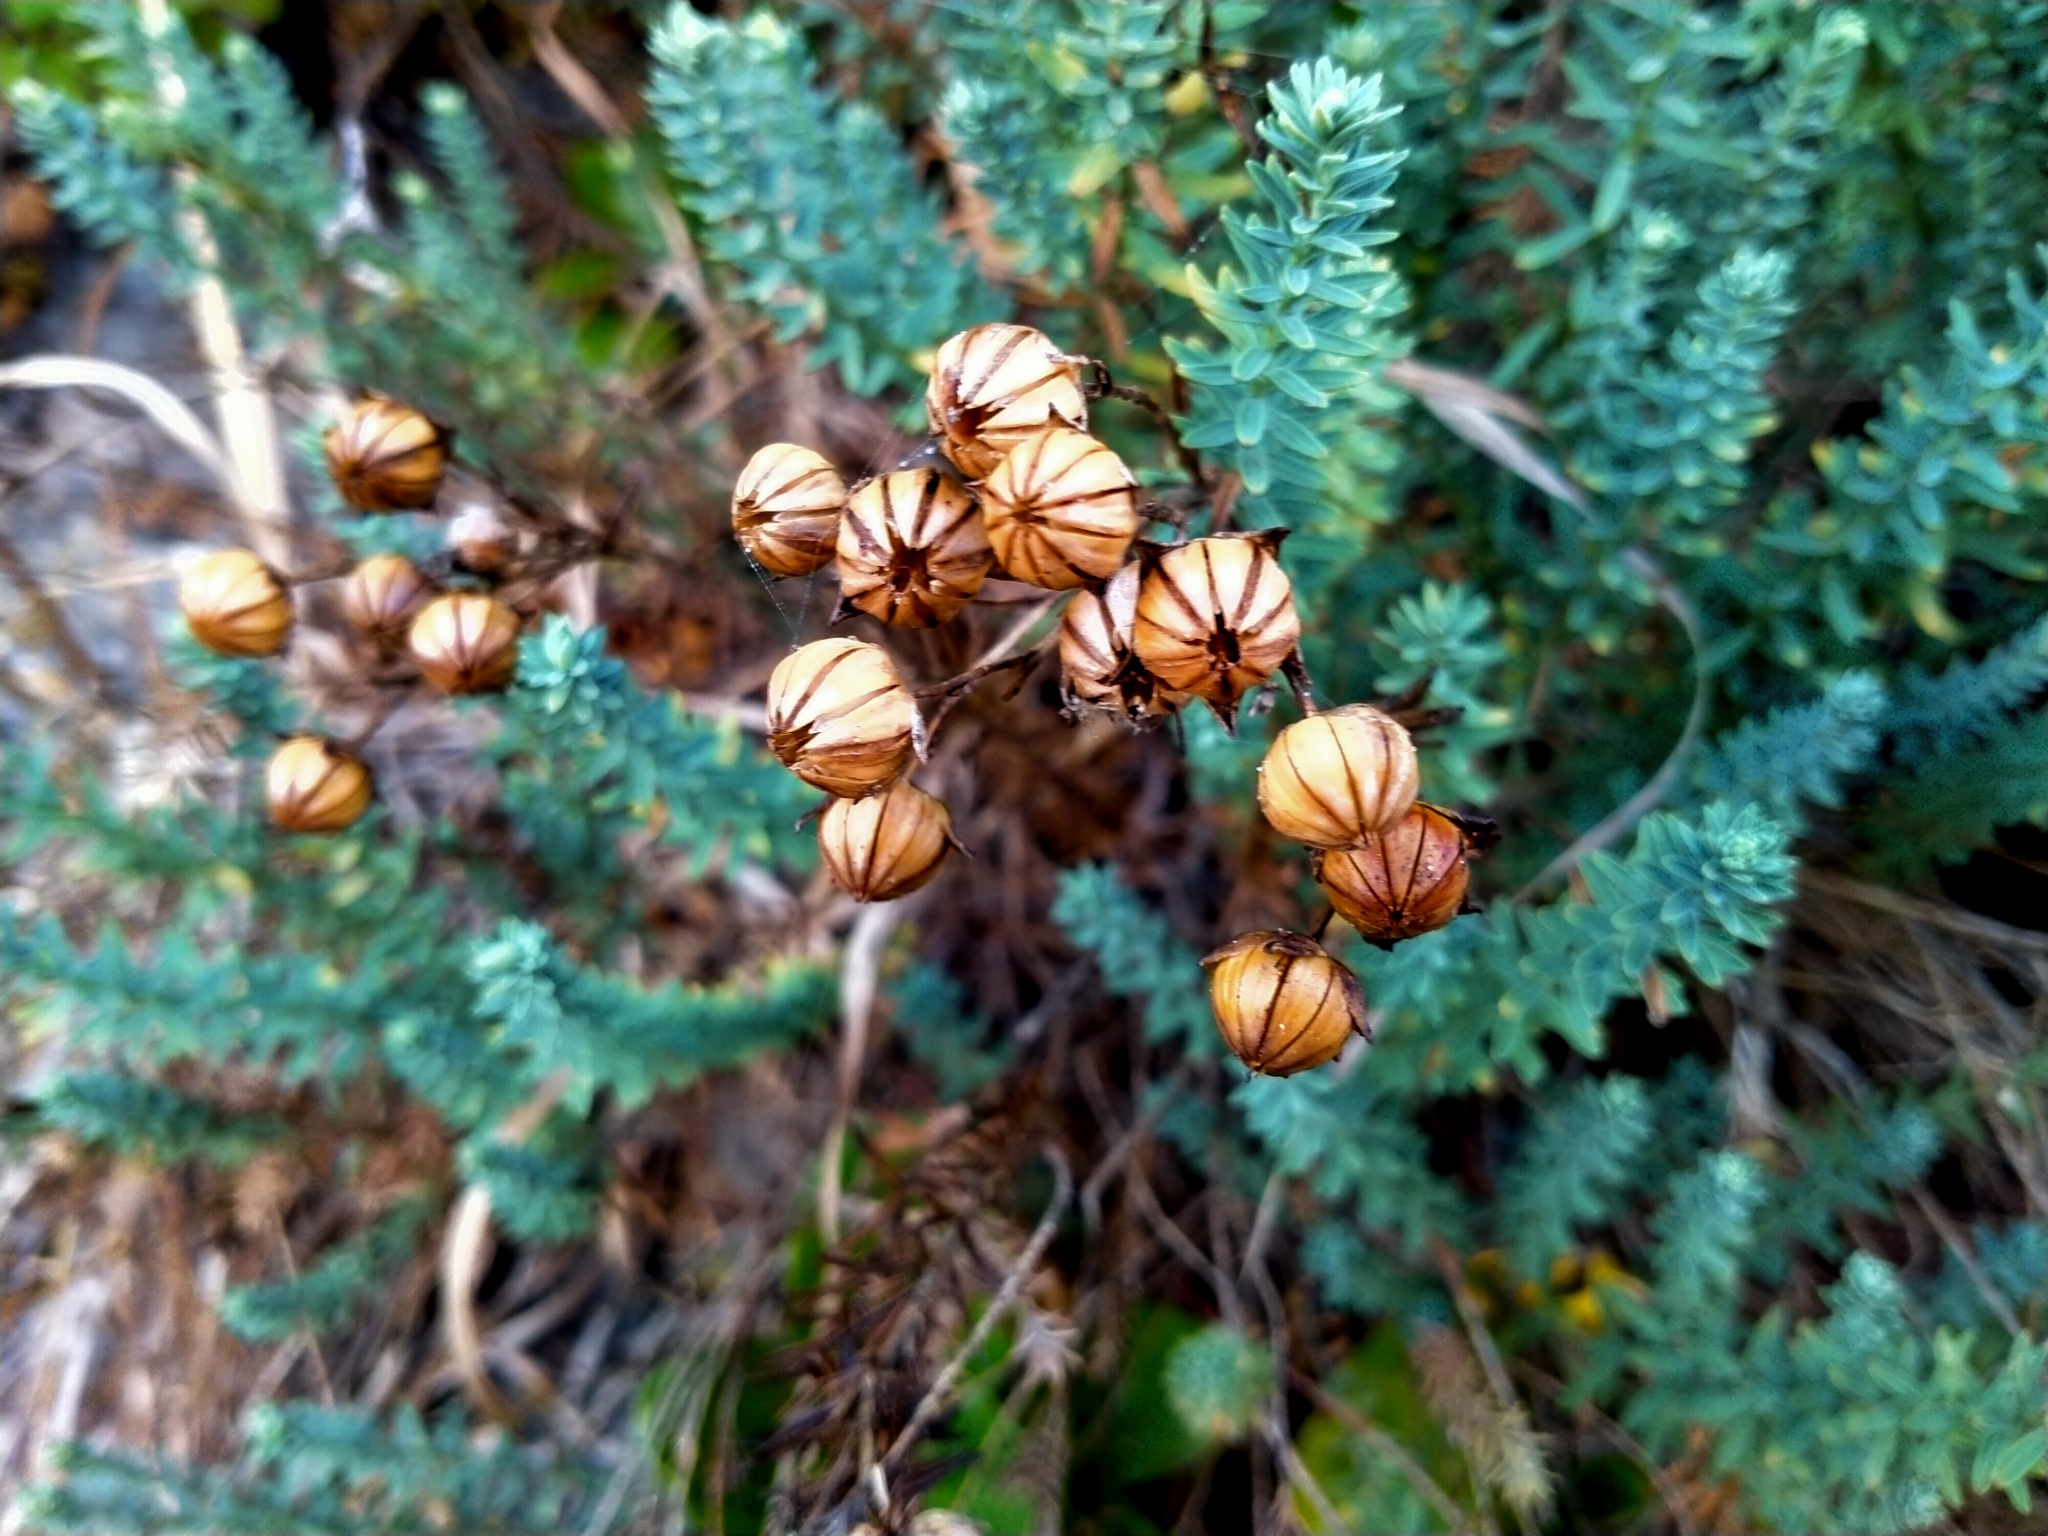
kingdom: Plantae
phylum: Tracheophyta
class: Magnoliopsida
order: Malpighiales
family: Linaceae
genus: Linum
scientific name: Linum monogynum
